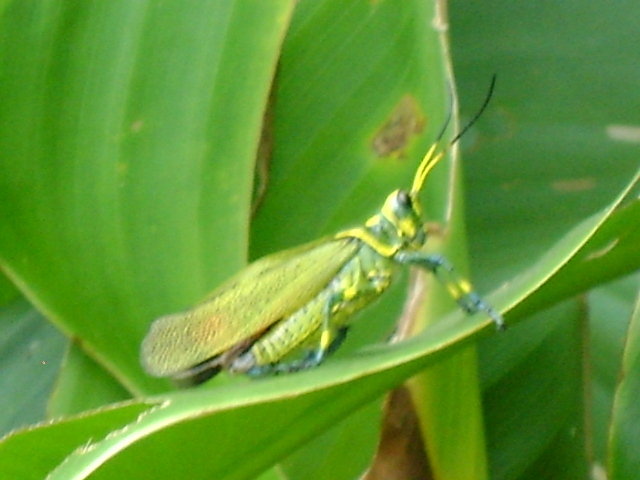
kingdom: Animalia
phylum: Arthropoda
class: Insecta
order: Orthoptera
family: Romaleidae
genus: Chromacris
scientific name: Chromacris colorata
